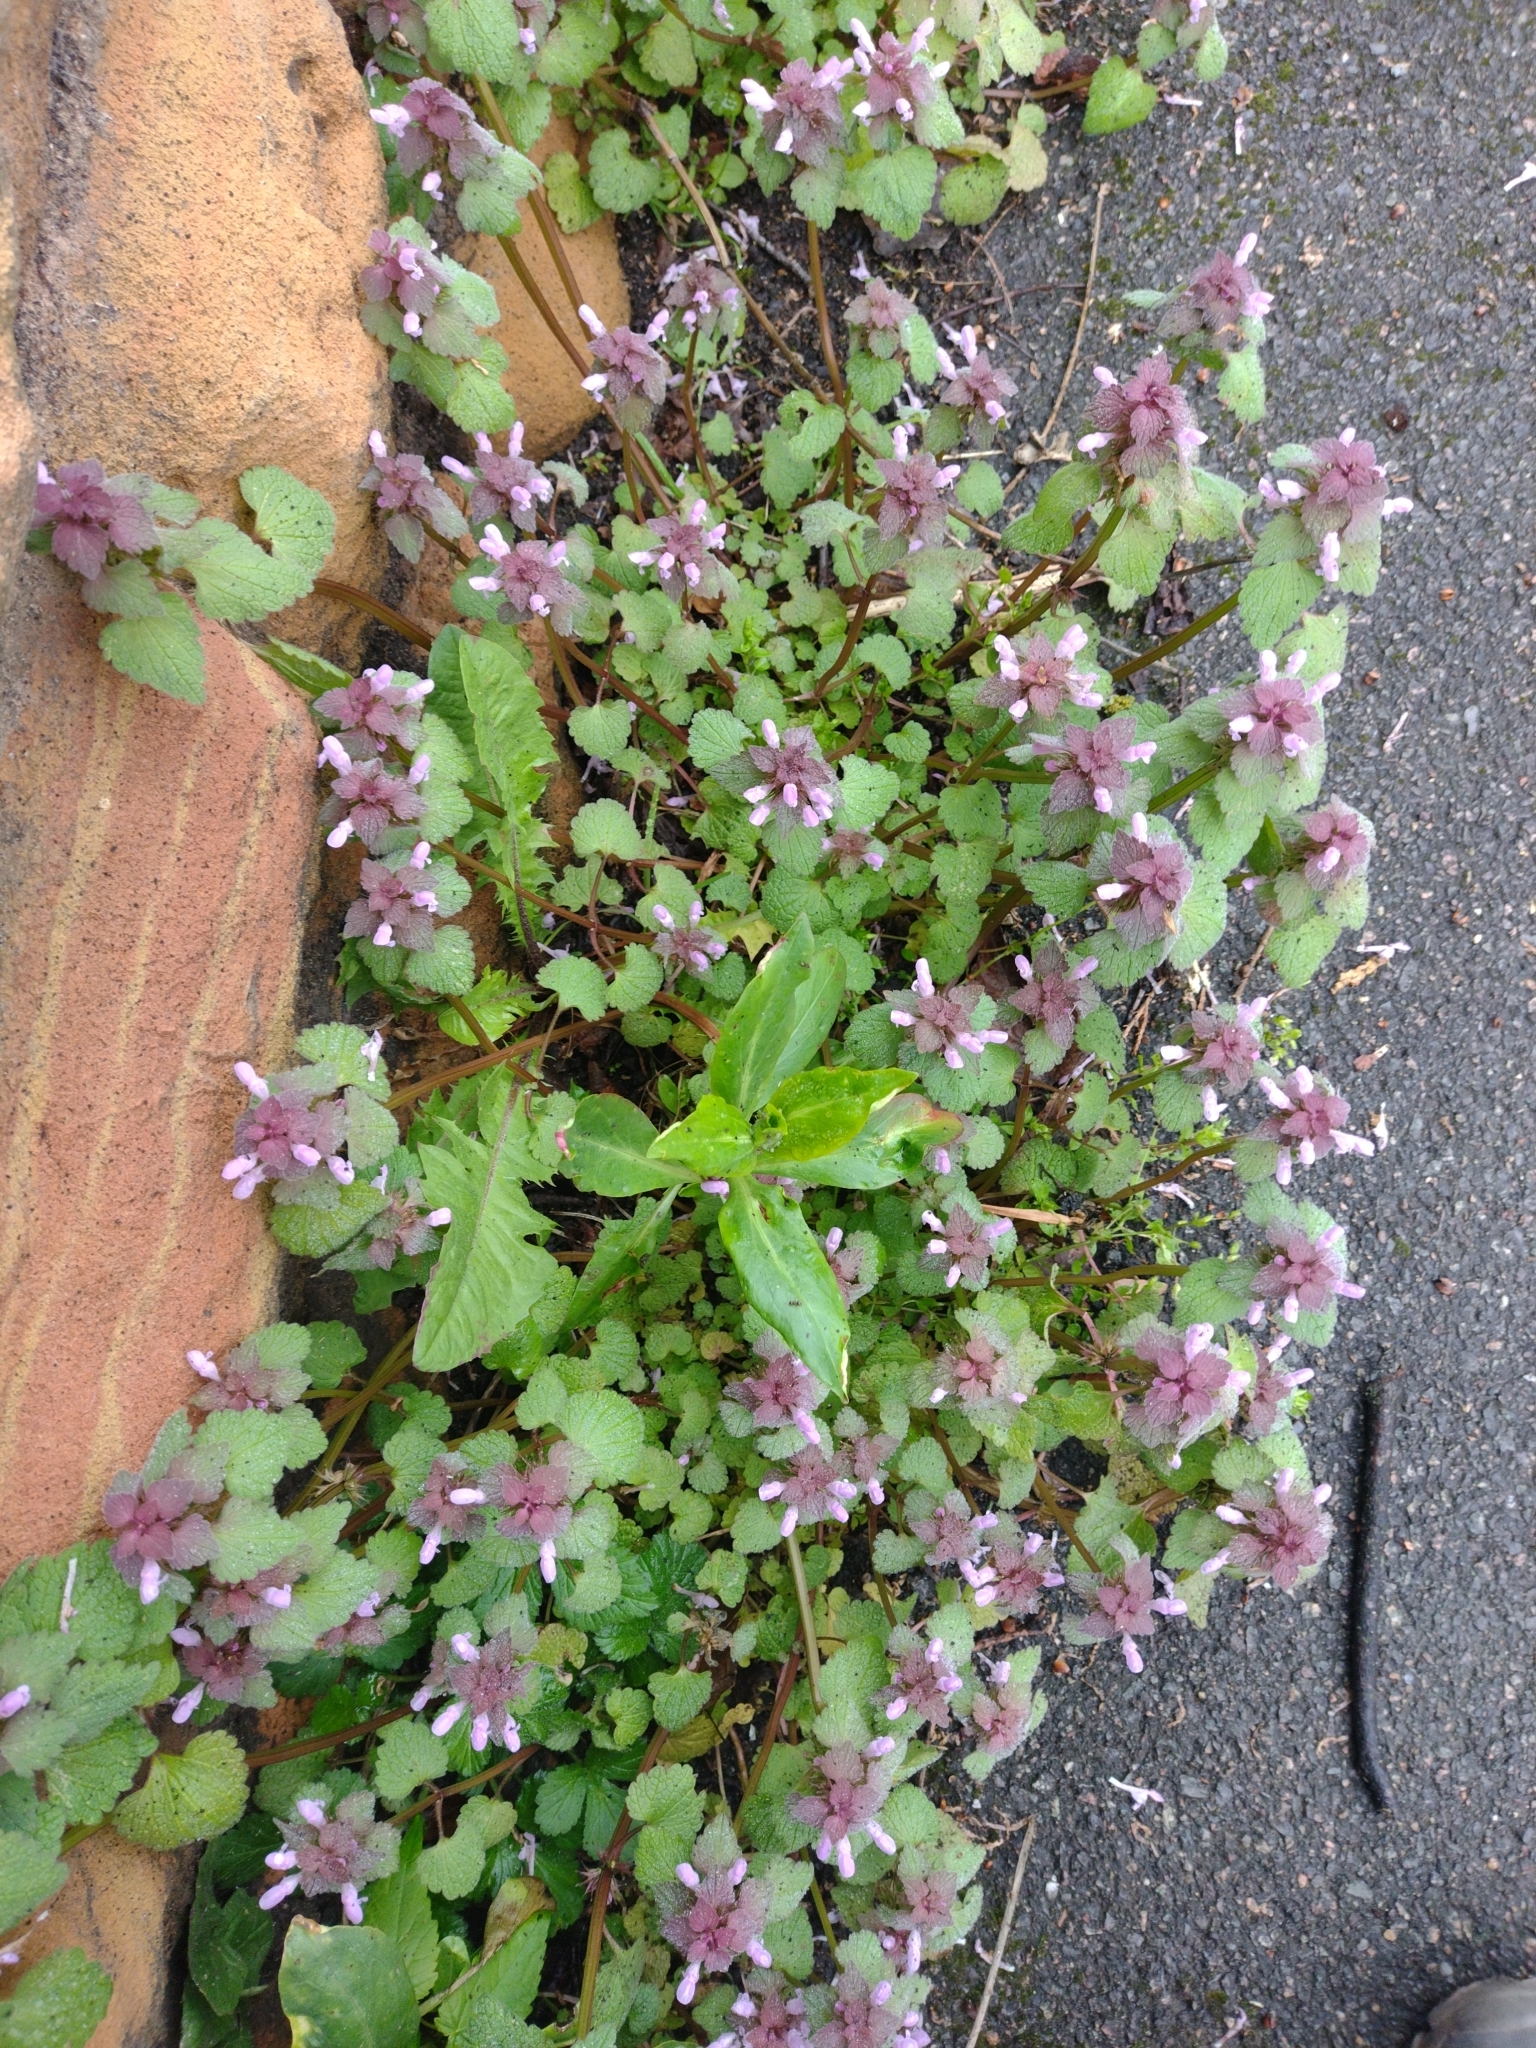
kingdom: Plantae
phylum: Tracheophyta
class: Magnoliopsida
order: Lamiales
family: Lamiaceae
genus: Lamium
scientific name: Lamium purpureum
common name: Red dead-nettle
